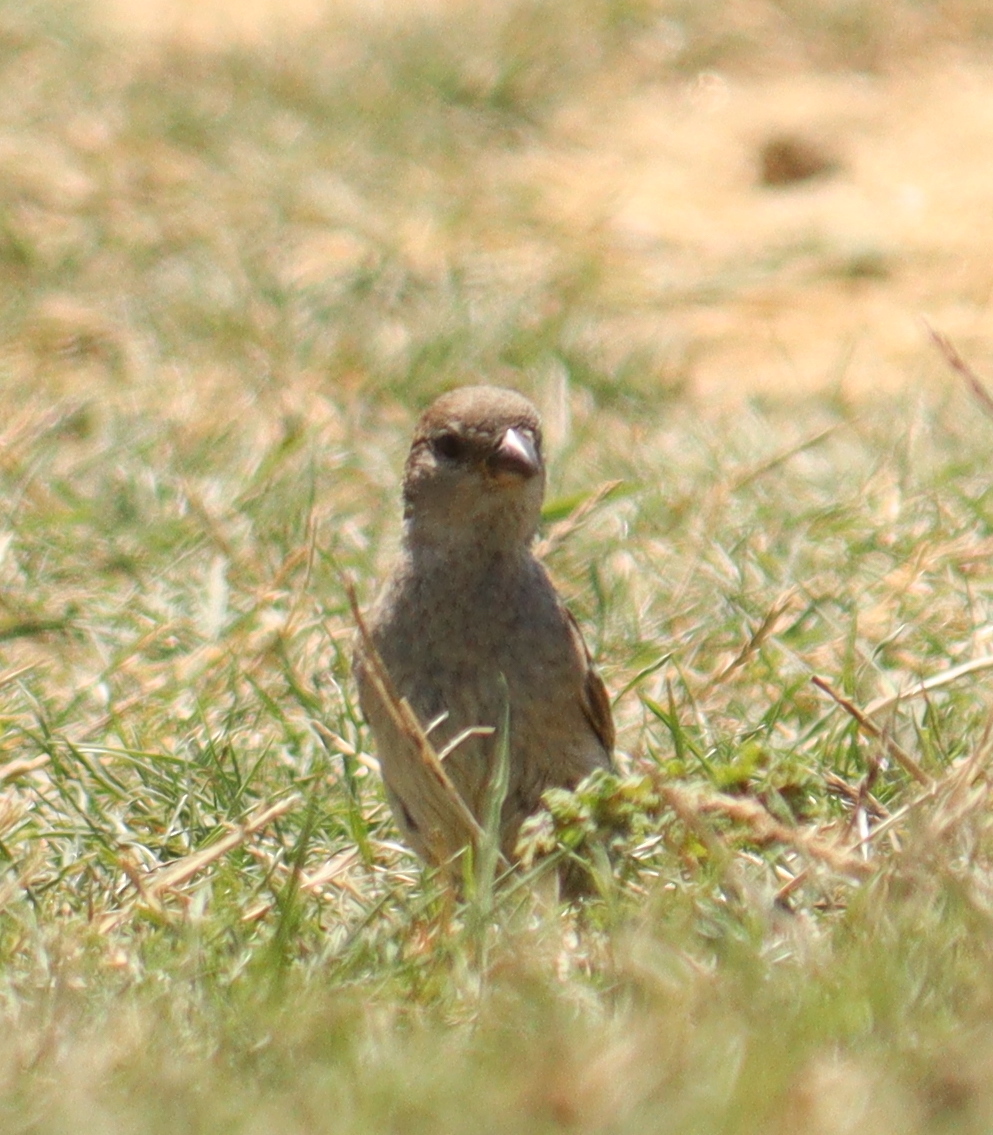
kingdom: Animalia
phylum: Chordata
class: Aves
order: Passeriformes
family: Passeridae
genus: Passer
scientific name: Passer domesticus
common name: House sparrow
